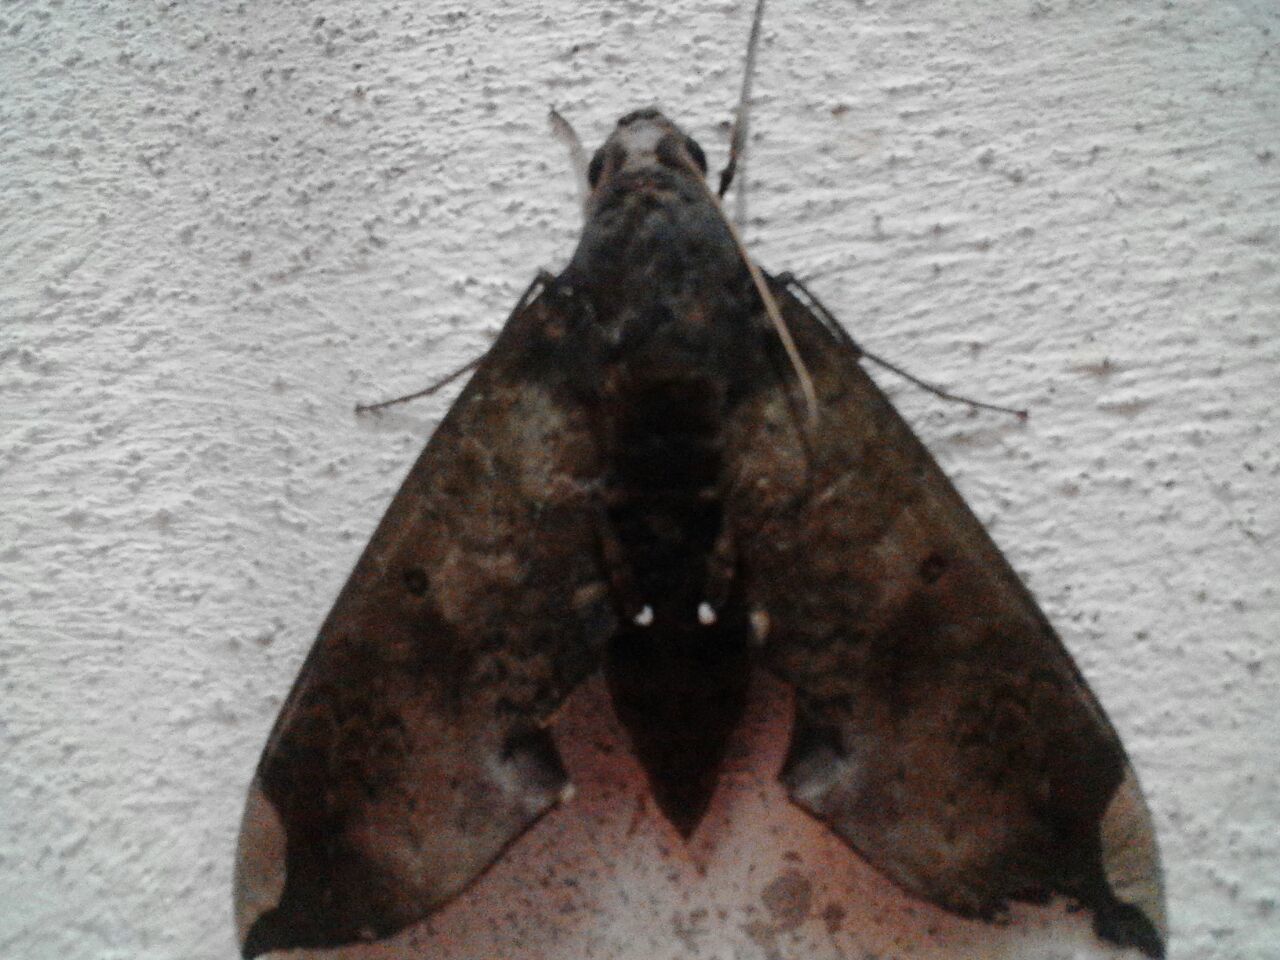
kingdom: Animalia
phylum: Arthropoda
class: Insecta
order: Lepidoptera
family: Sphingidae
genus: Pachylia
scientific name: Pachylia ficus
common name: Fig sphinx
